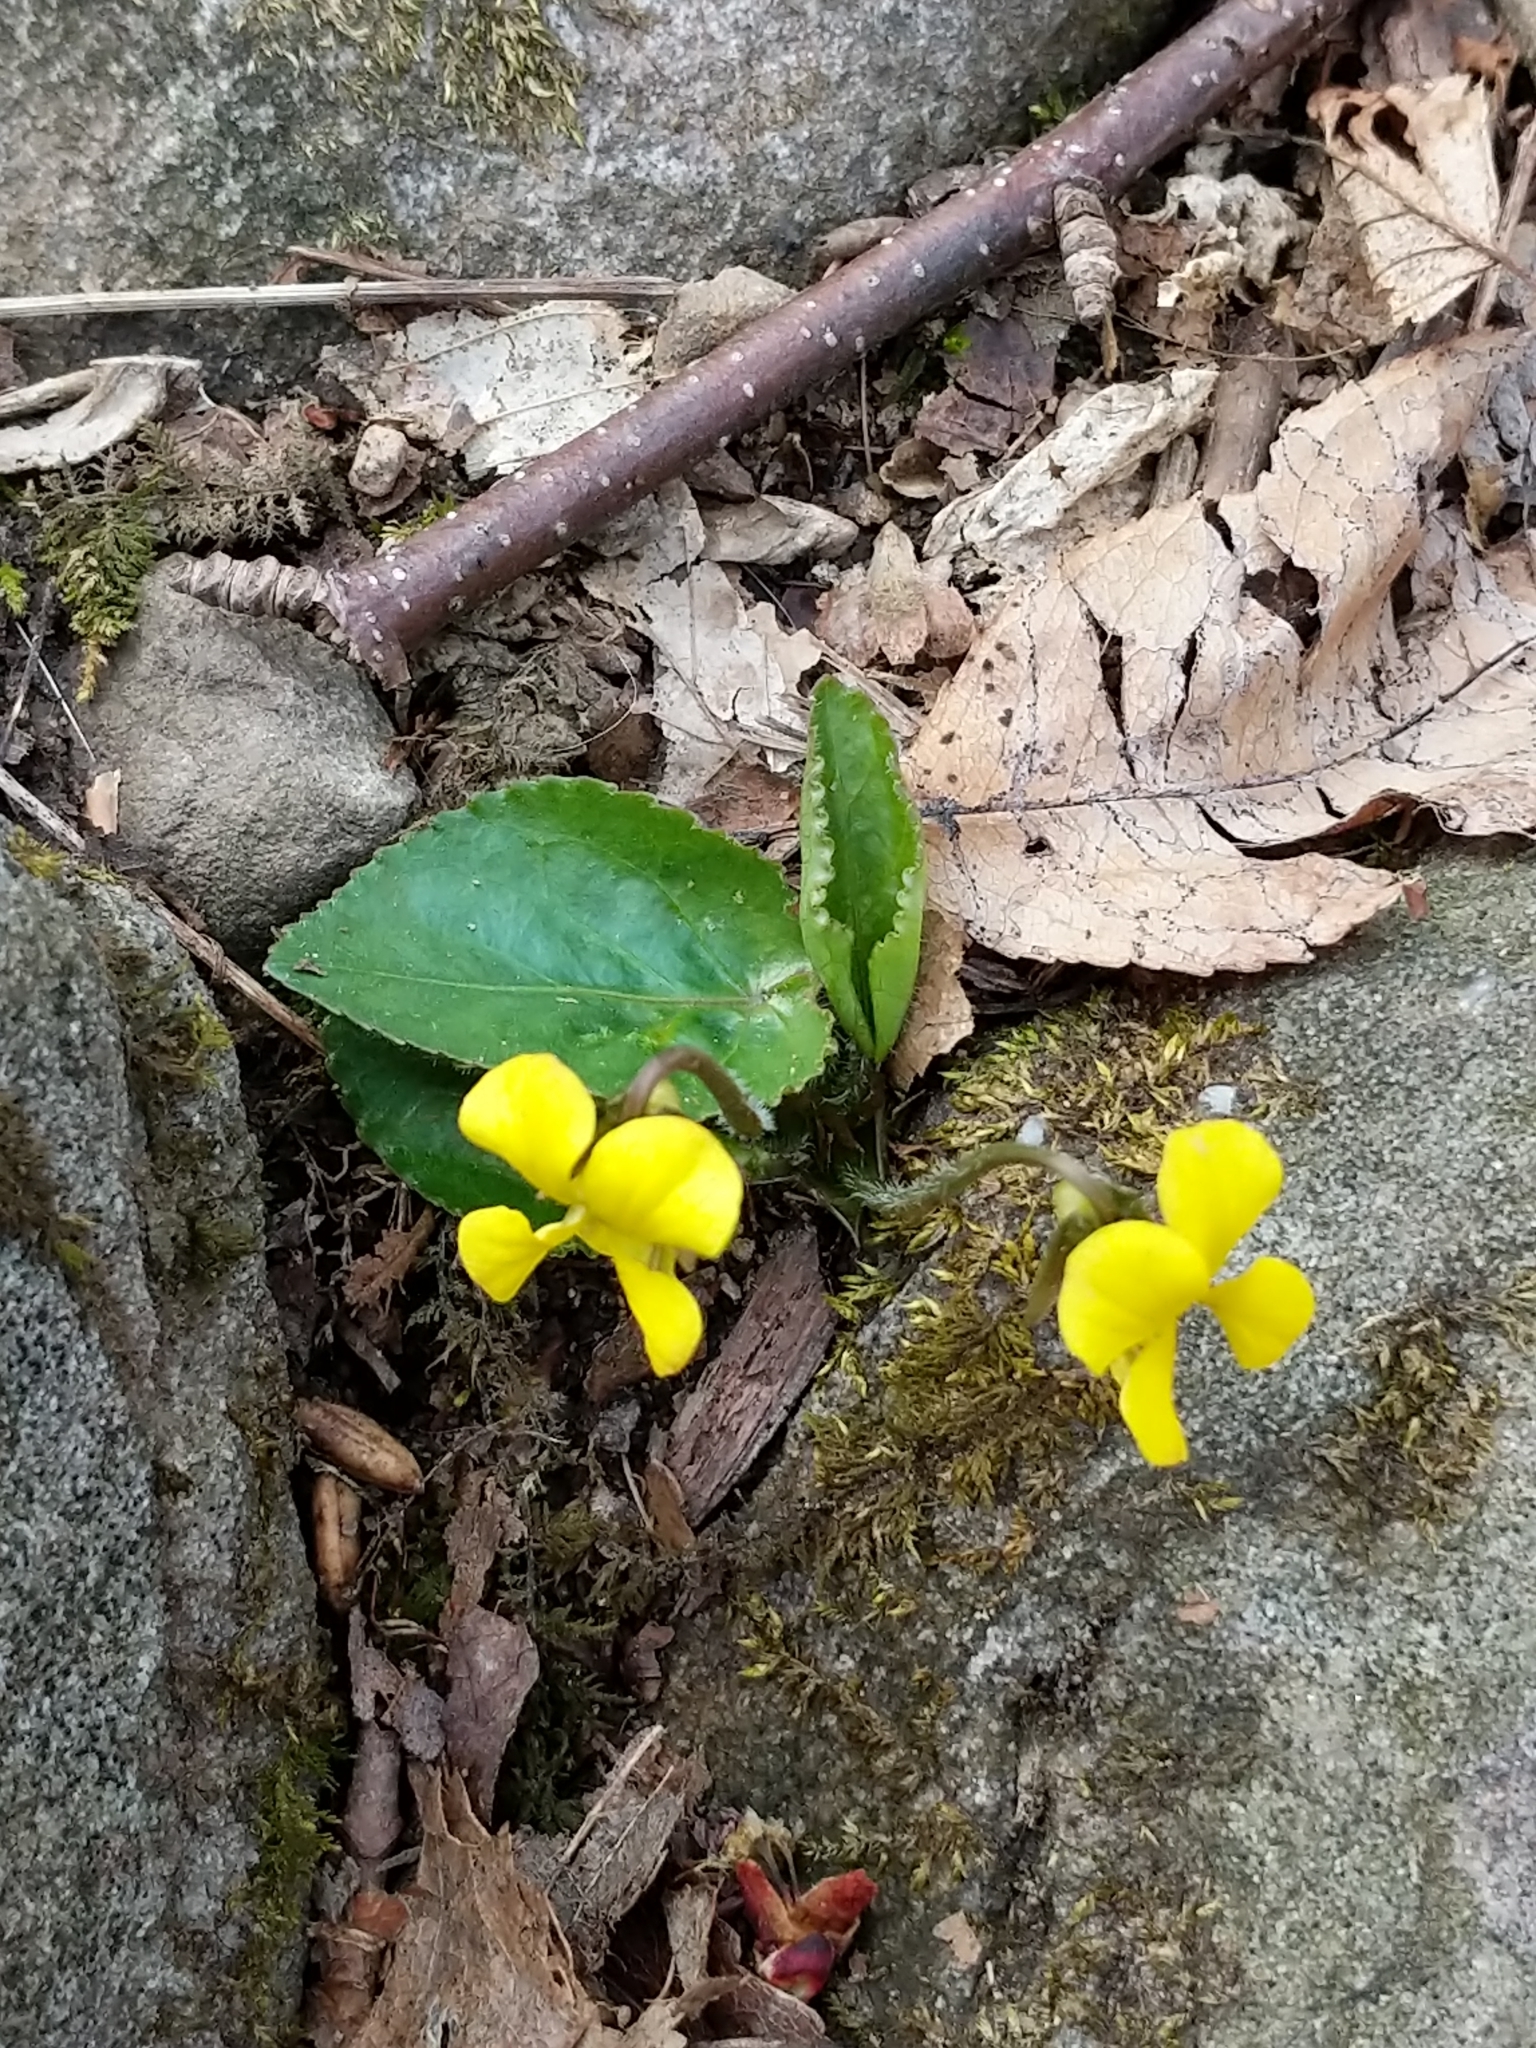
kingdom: Plantae
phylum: Tracheophyta
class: Magnoliopsida
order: Malpighiales
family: Violaceae
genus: Viola
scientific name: Viola rotundifolia
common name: Early yellow violet
